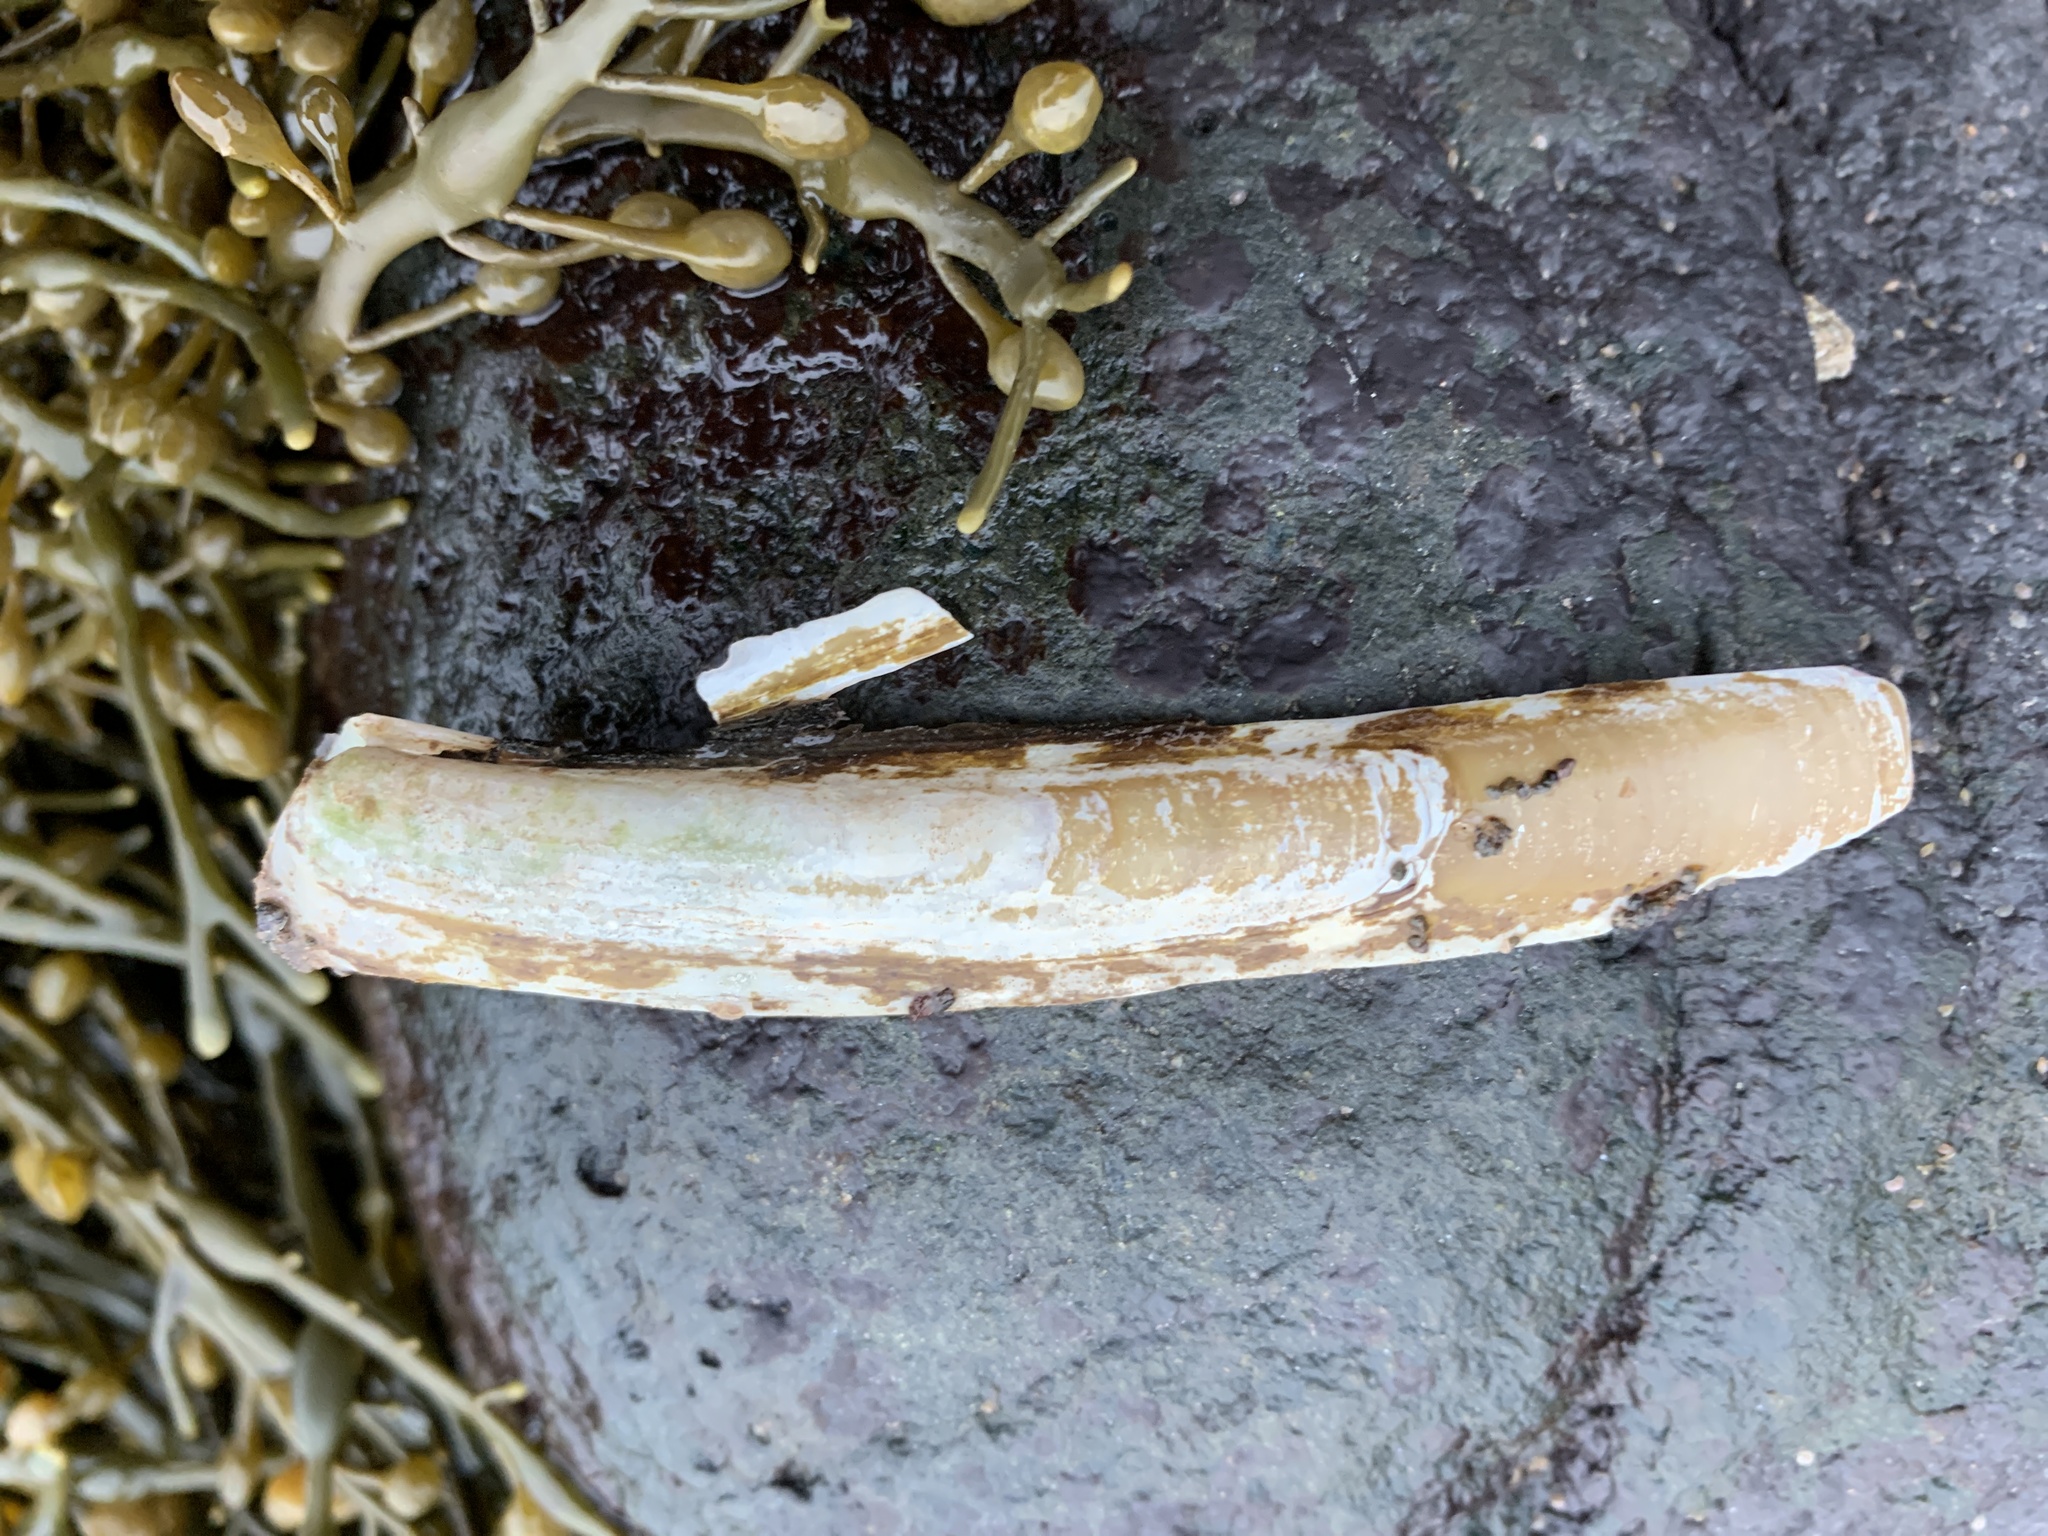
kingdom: Animalia
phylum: Mollusca
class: Bivalvia
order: Adapedonta
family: Pharidae
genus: Ensis
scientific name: Ensis leei
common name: American jack knife clam
